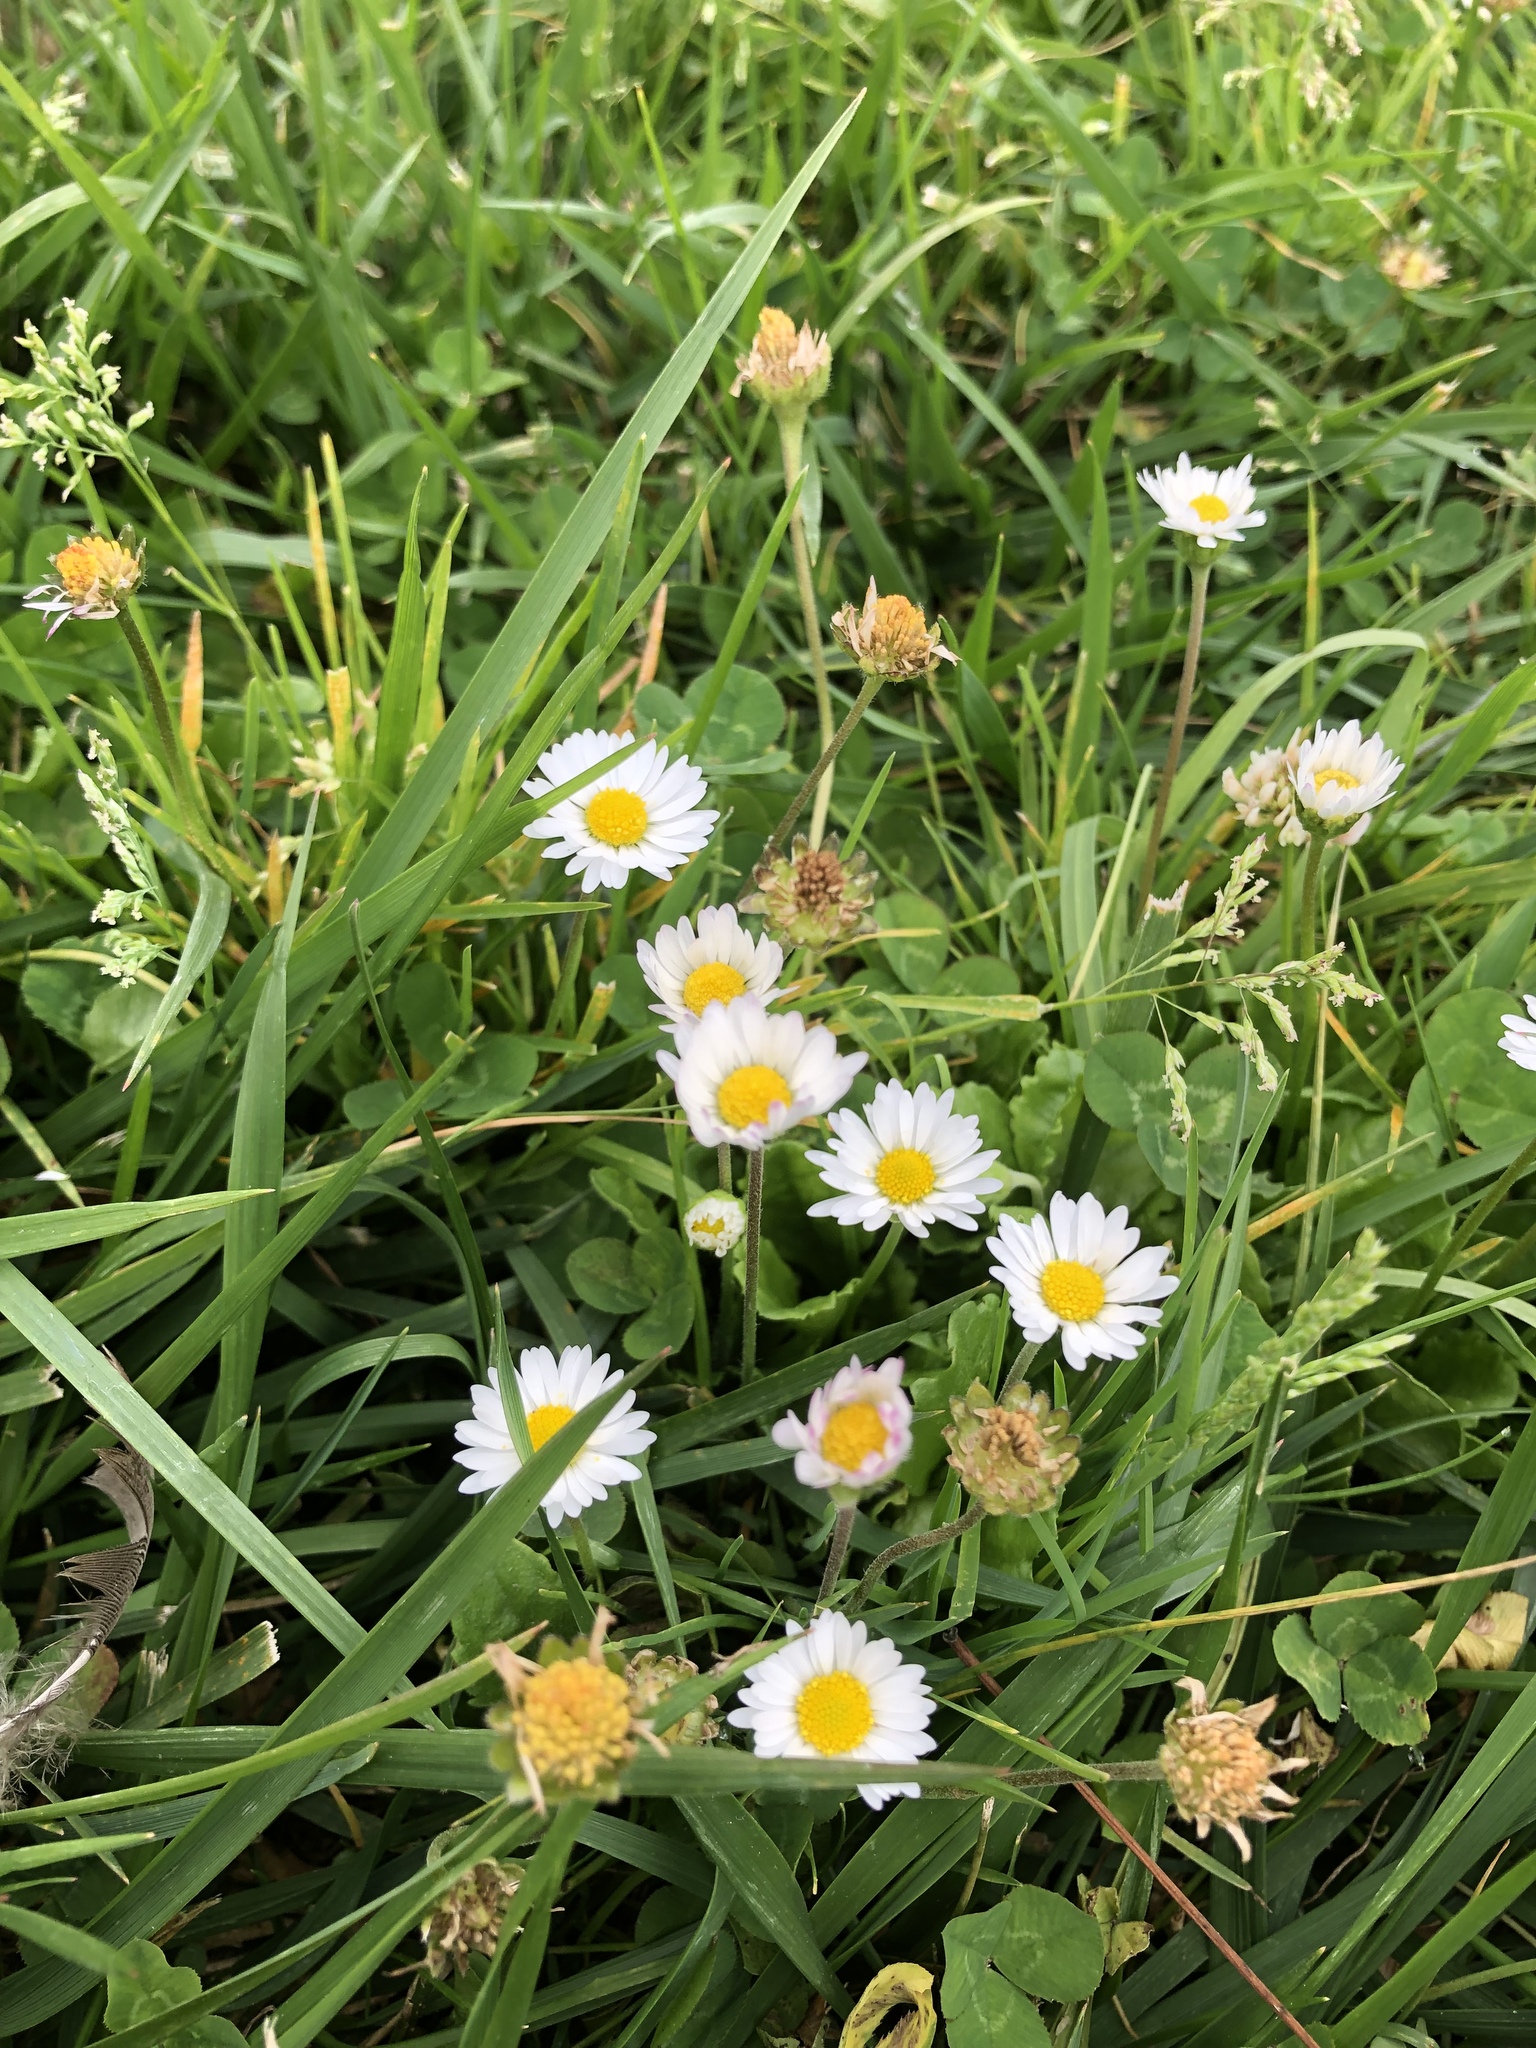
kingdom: Plantae
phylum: Tracheophyta
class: Magnoliopsida
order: Asterales
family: Asteraceae
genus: Bellis
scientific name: Bellis perennis
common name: Lawndaisy
